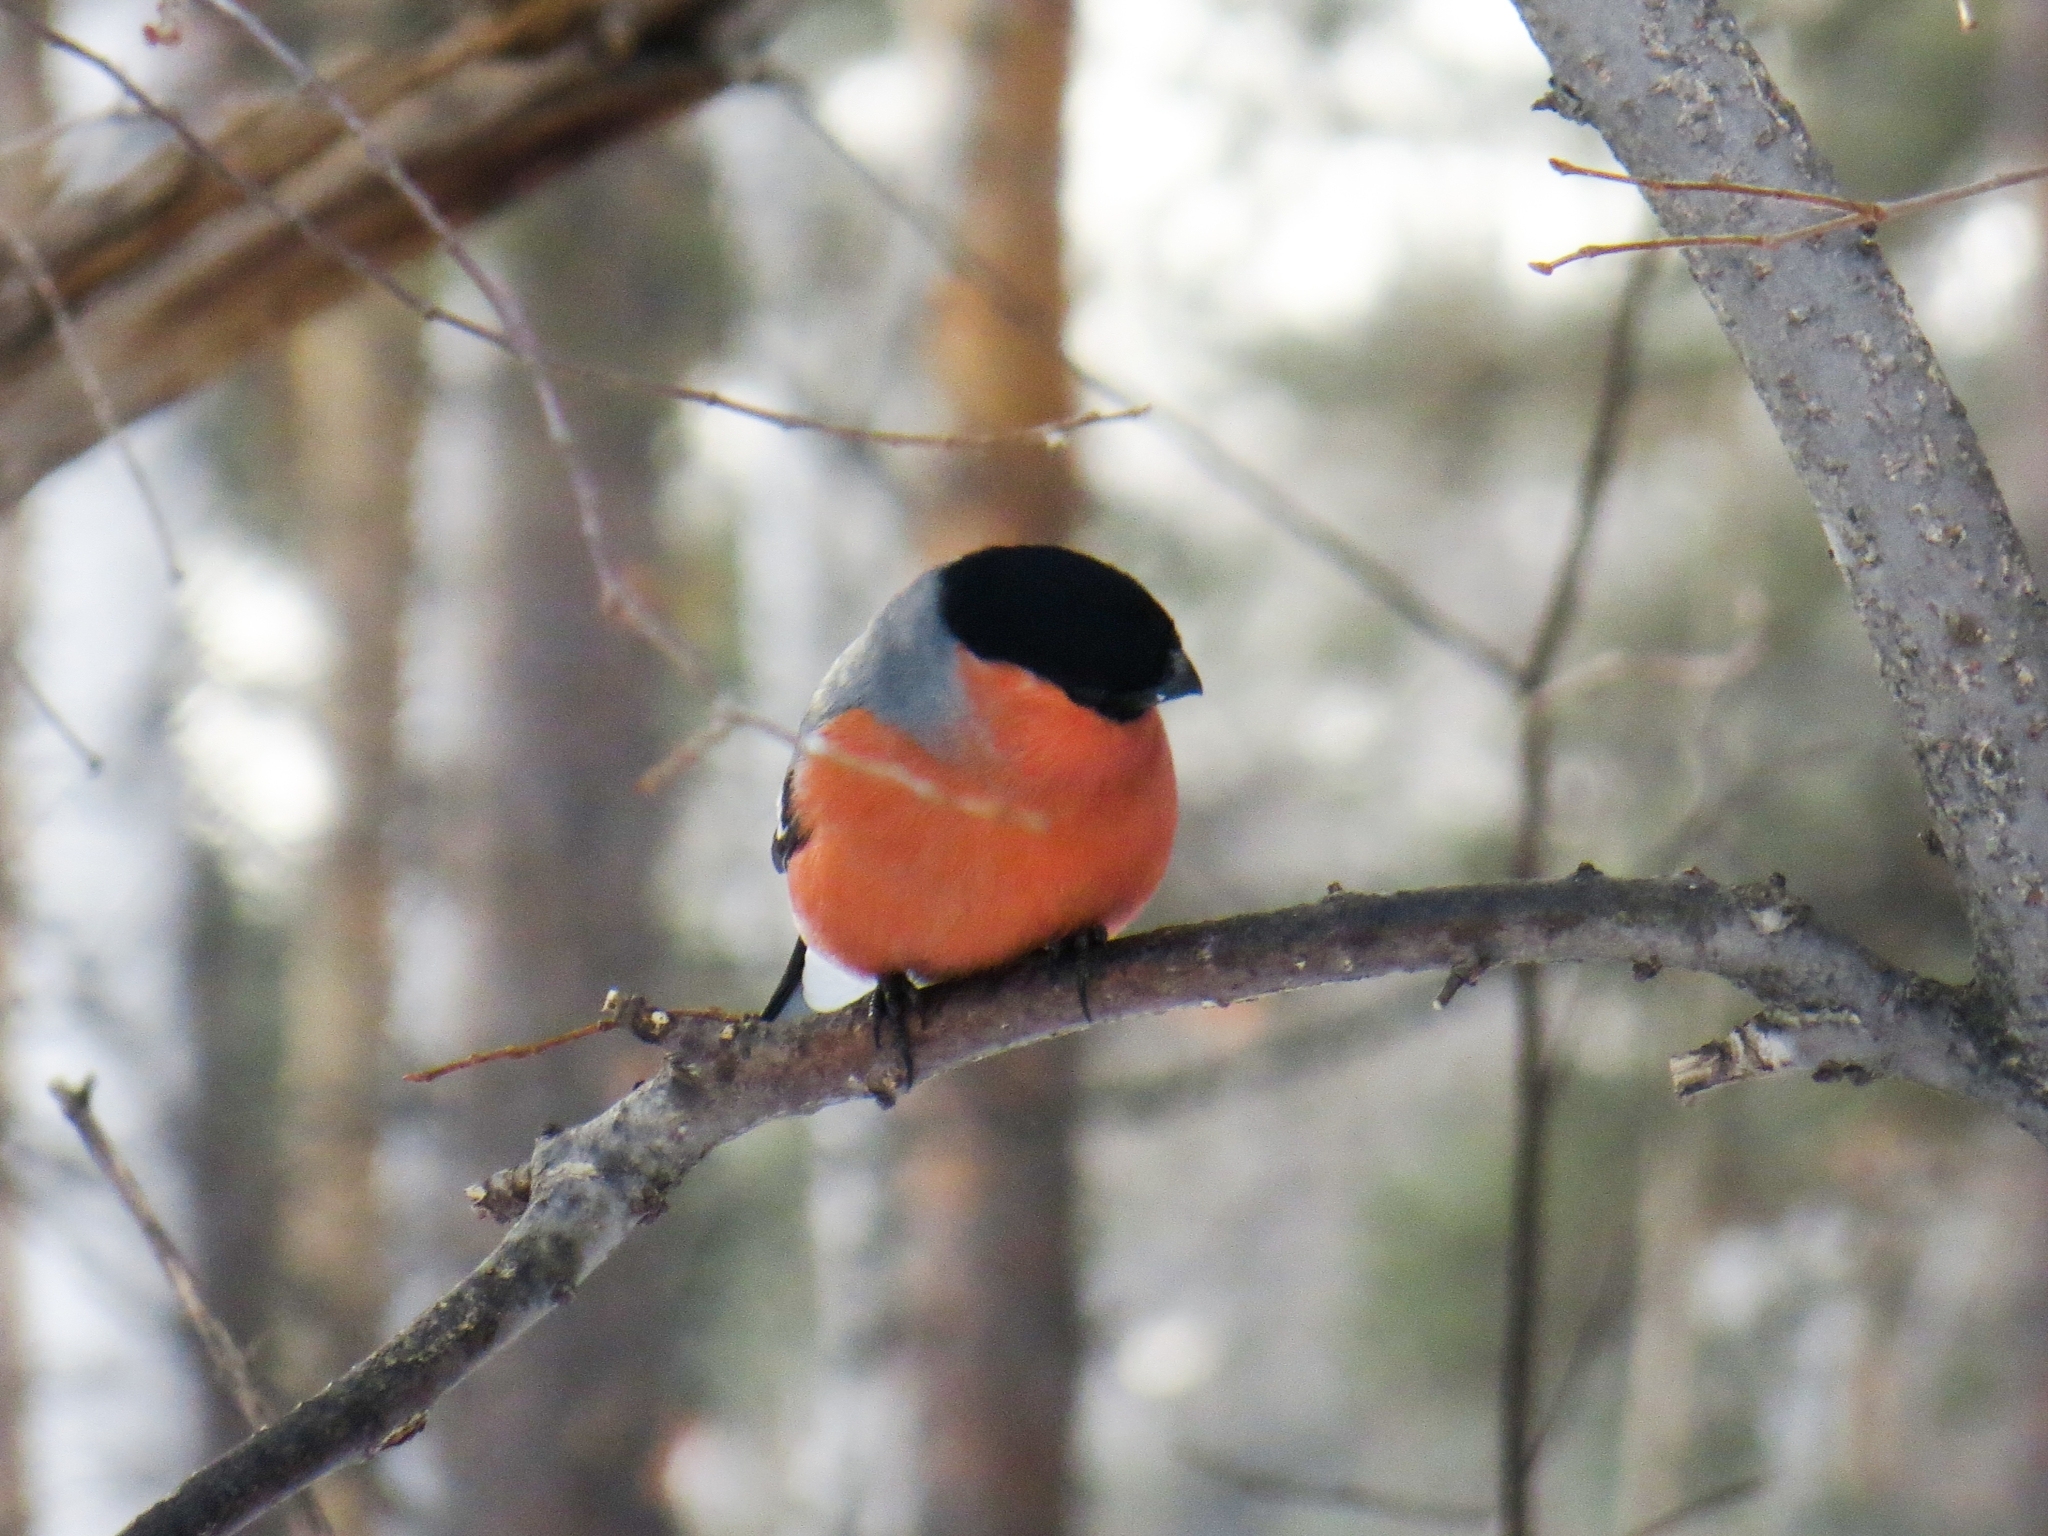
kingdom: Animalia
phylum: Chordata
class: Aves
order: Passeriformes
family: Fringillidae
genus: Pyrrhula
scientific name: Pyrrhula pyrrhula
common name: Eurasian bullfinch
